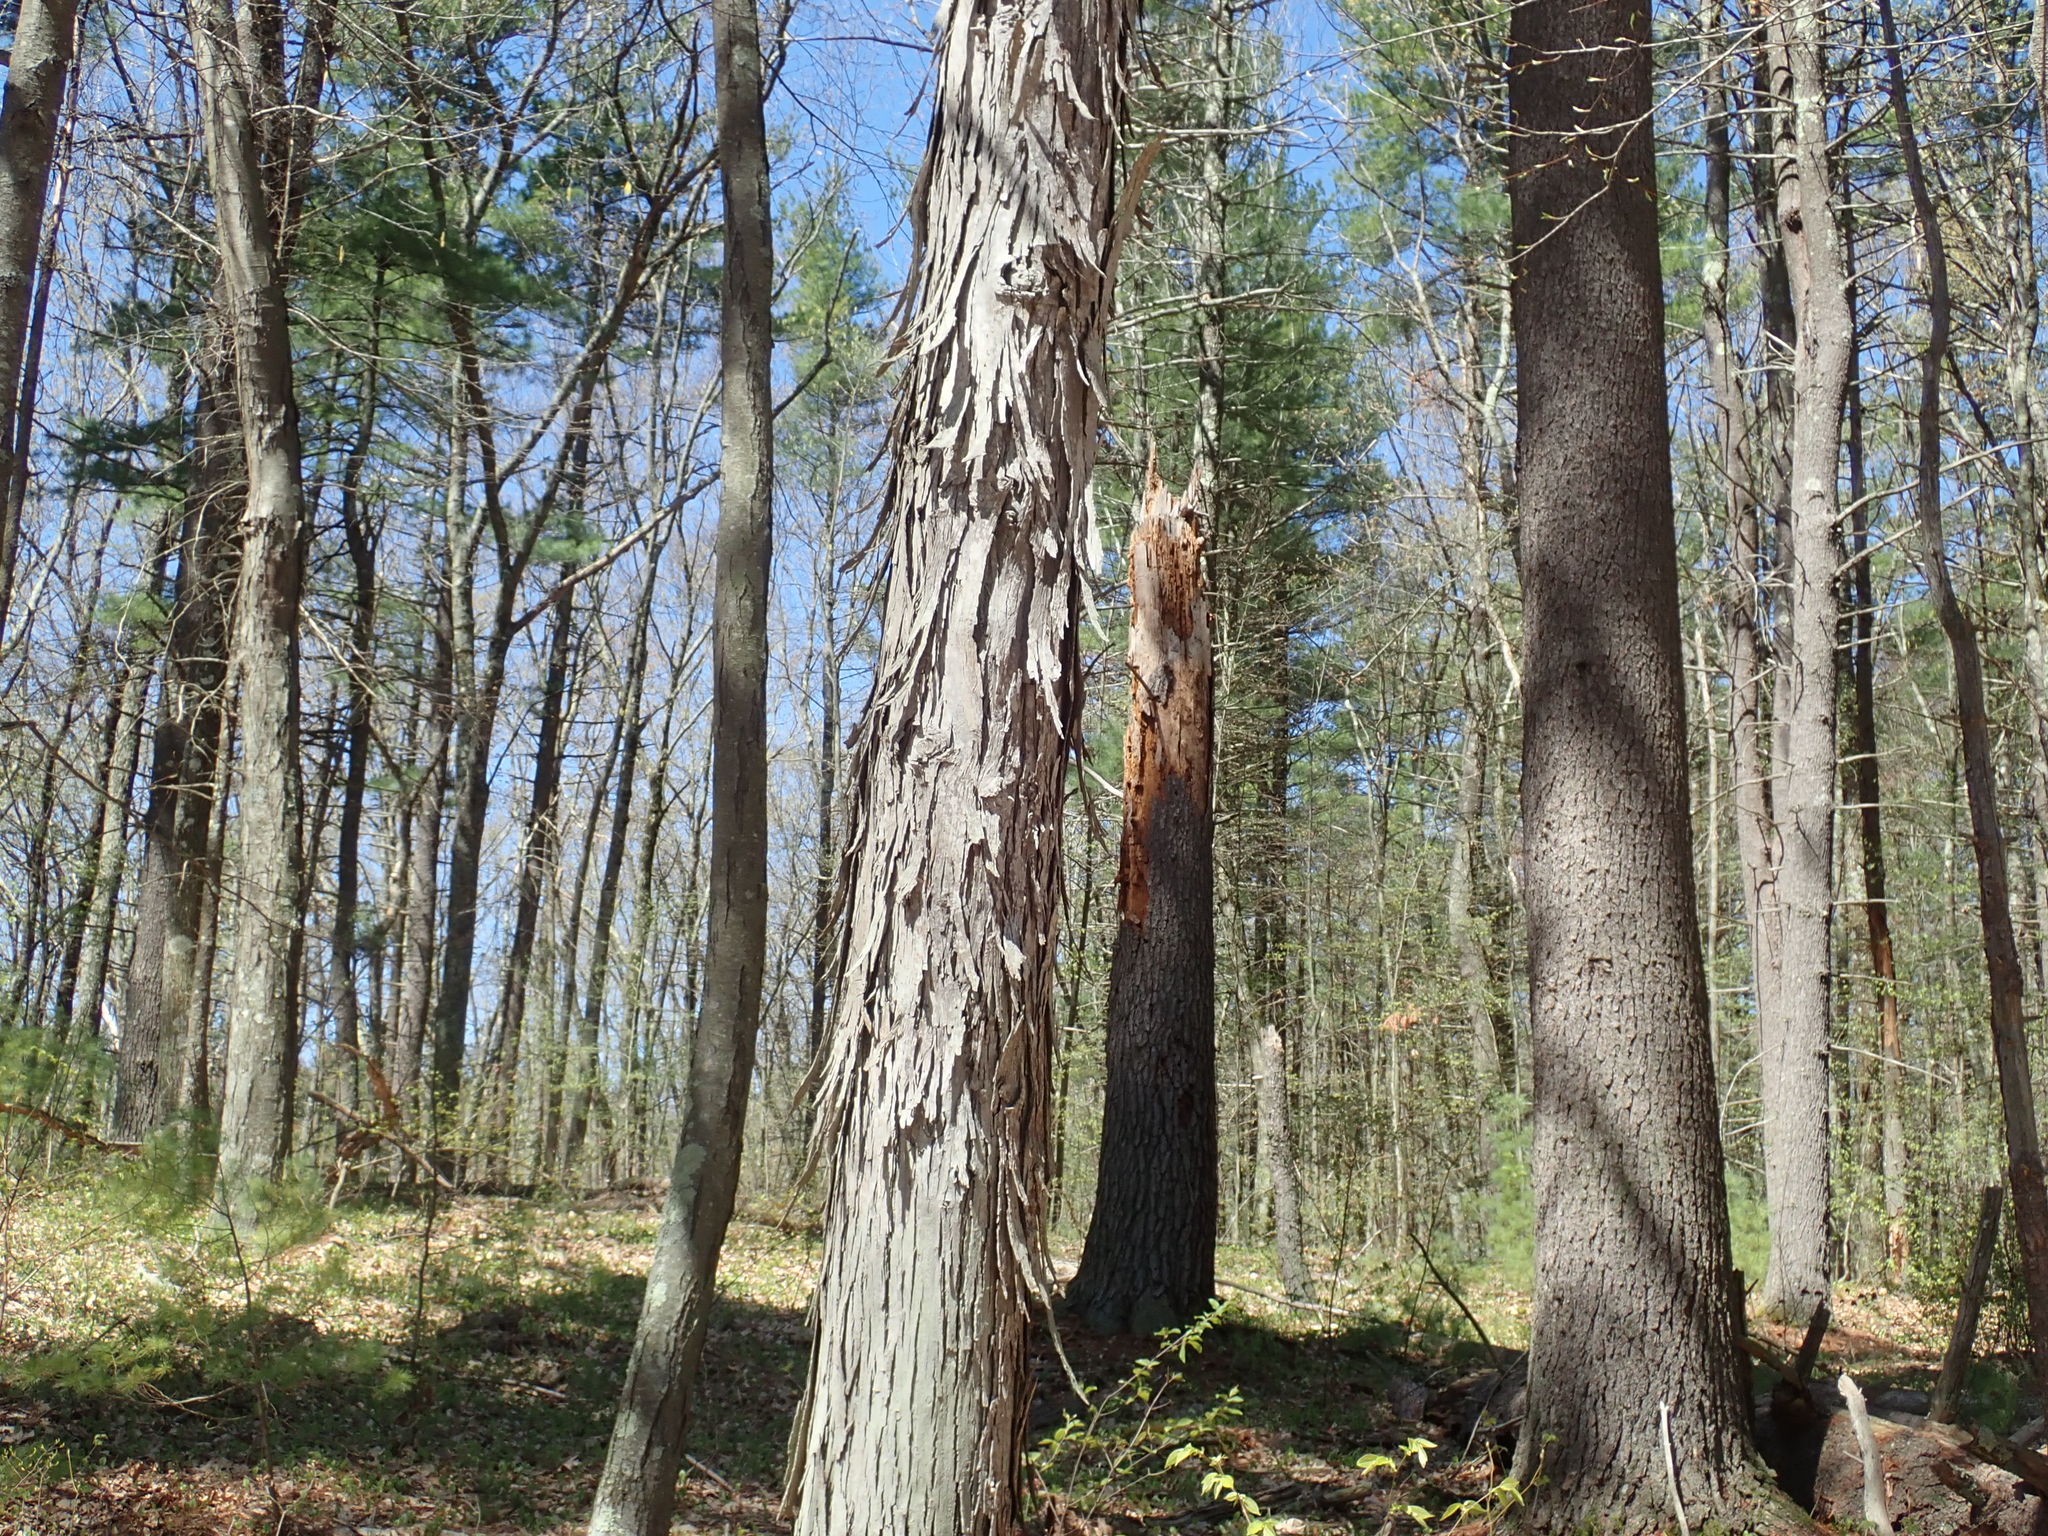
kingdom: Plantae
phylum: Tracheophyta
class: Magnoliopsida
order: Fagales
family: Juglandaceae
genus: Carya
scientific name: Carya ovata
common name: Shagbark hickory
